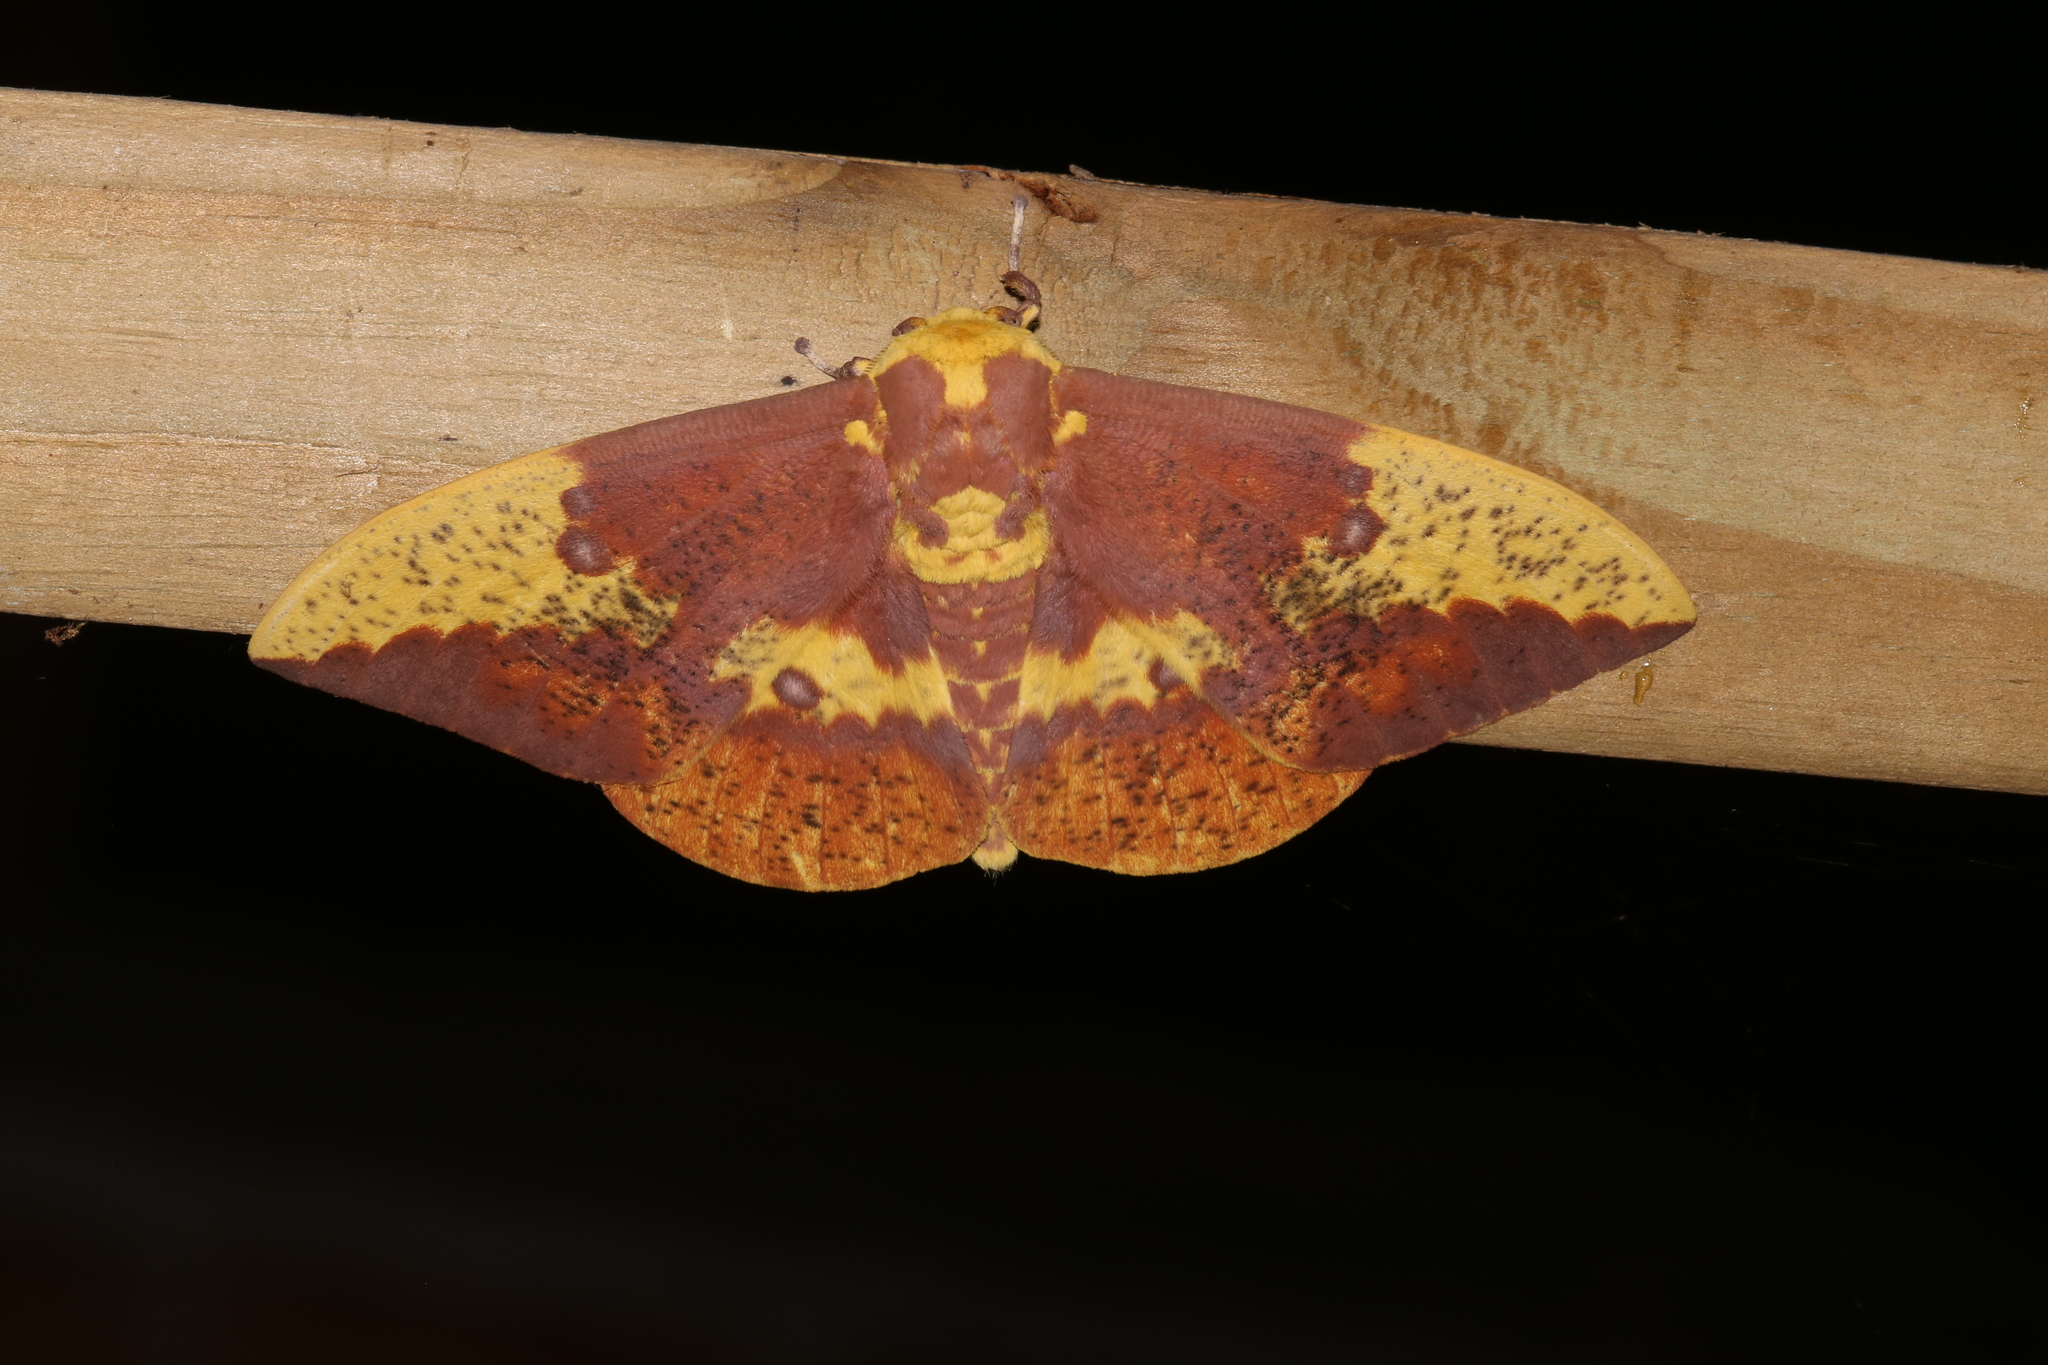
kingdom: Animalia
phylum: Arthropoda
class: Insecta
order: Lepidoptera
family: Saturniidae
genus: Eacles
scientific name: Eacles imperialis
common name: Imperial moth
